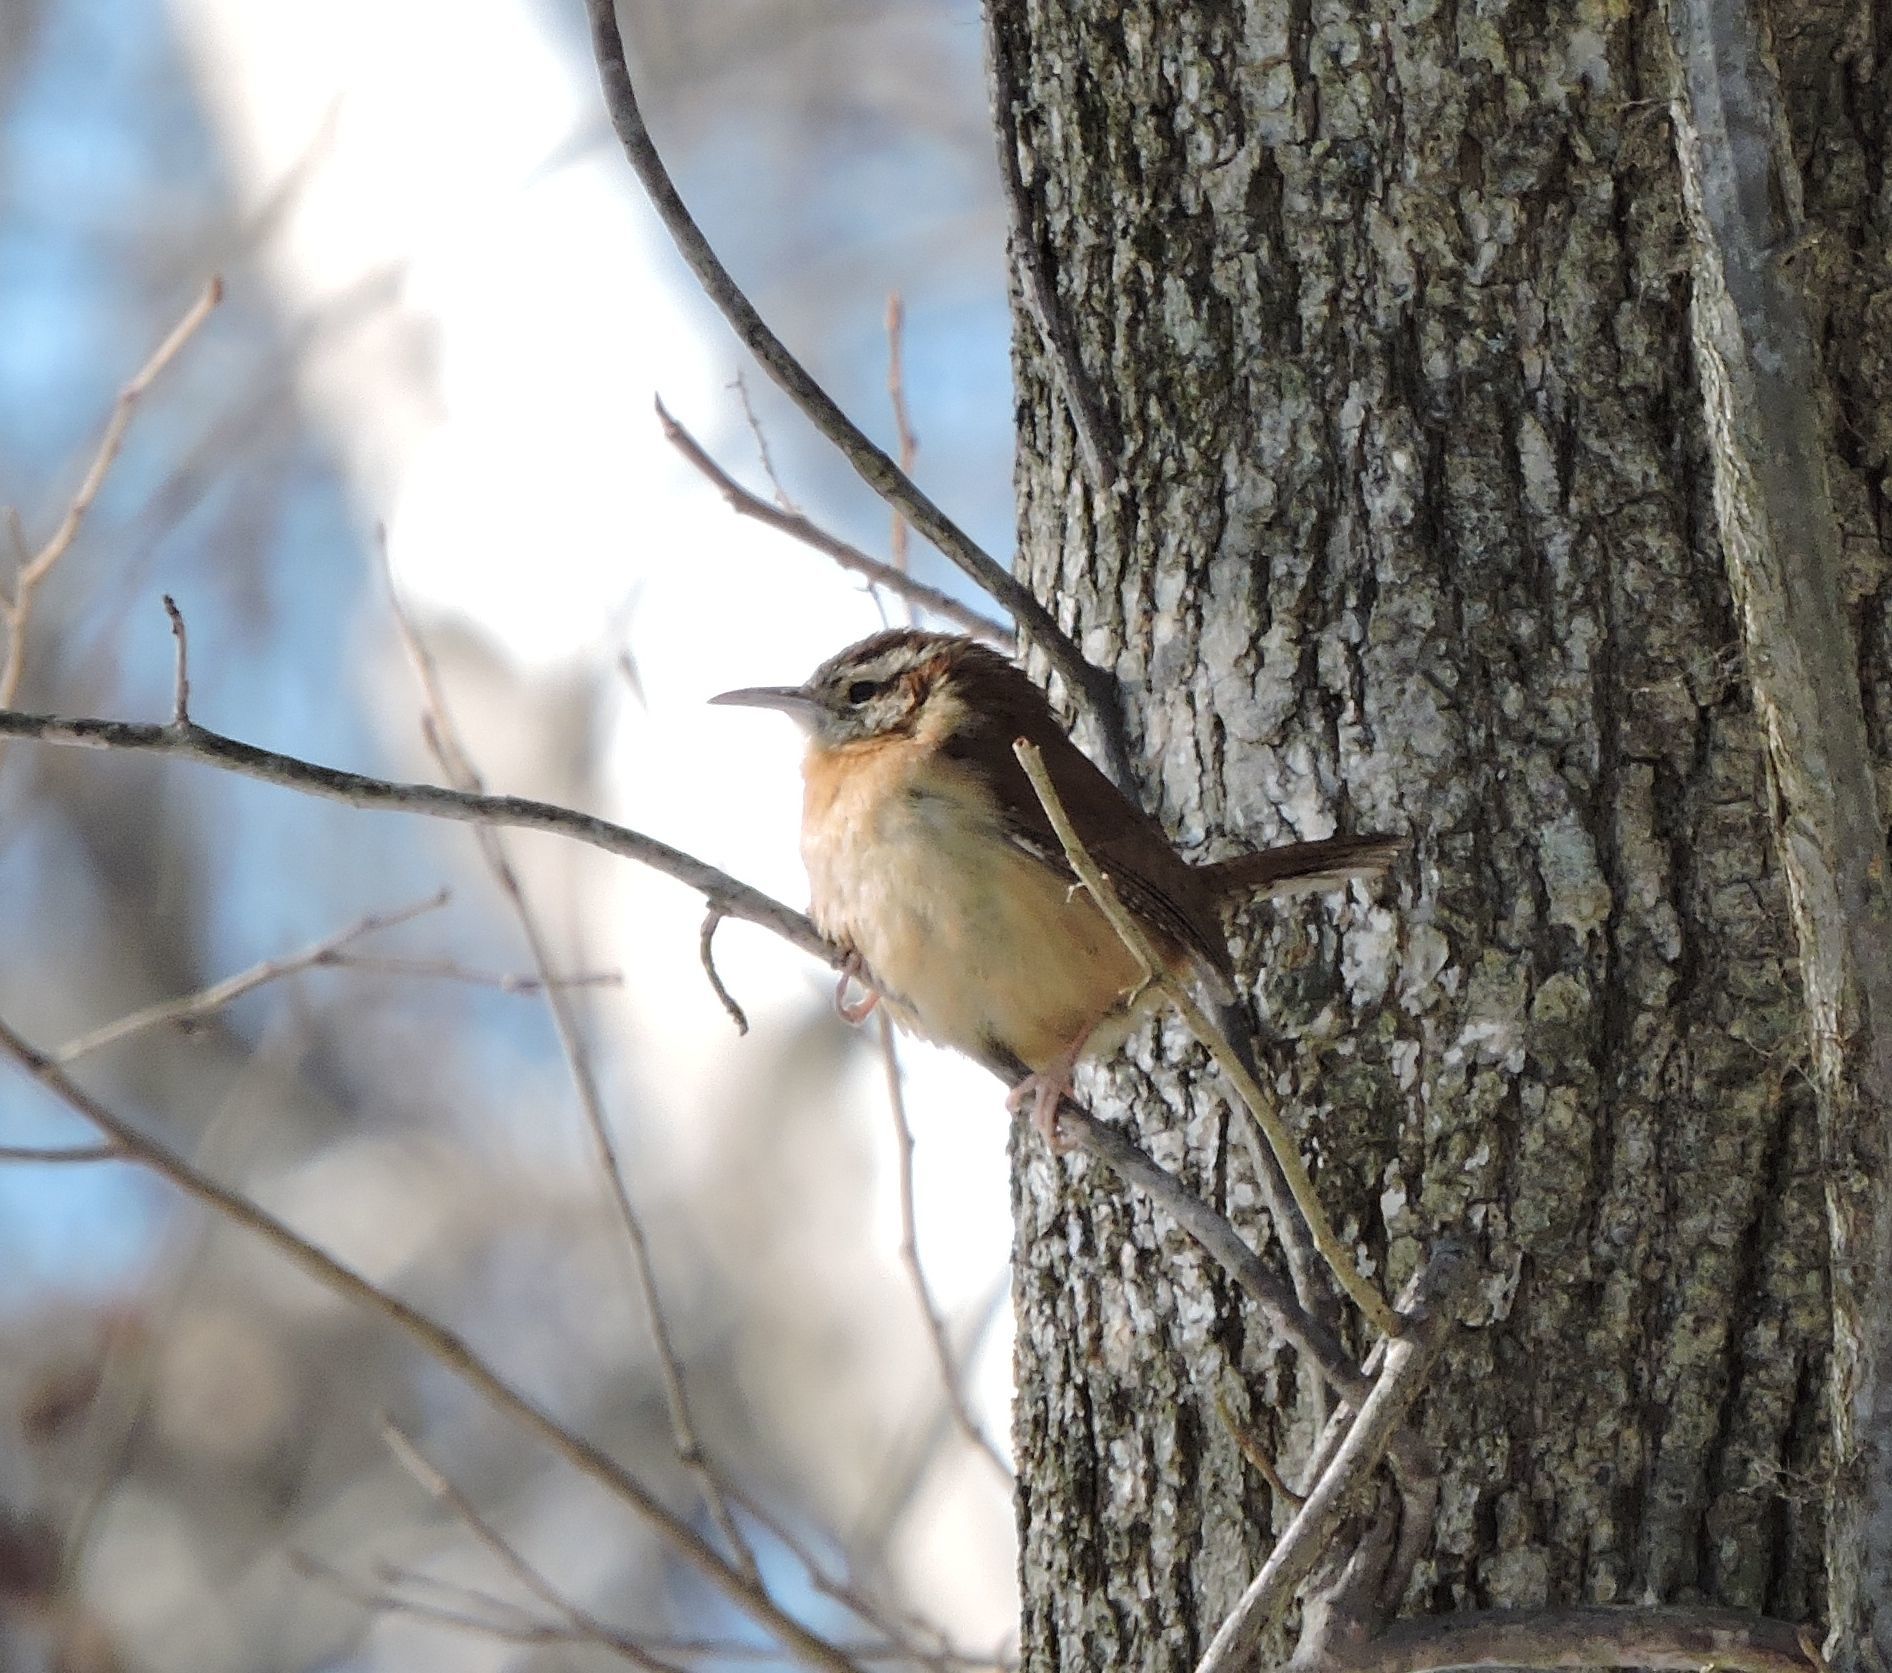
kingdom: Animalia
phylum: Chordata
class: Aves
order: Passeriformes
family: Troglodytidae
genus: Thryothorus
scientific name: Thryothorus ludovicianus
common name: Carolina wren
